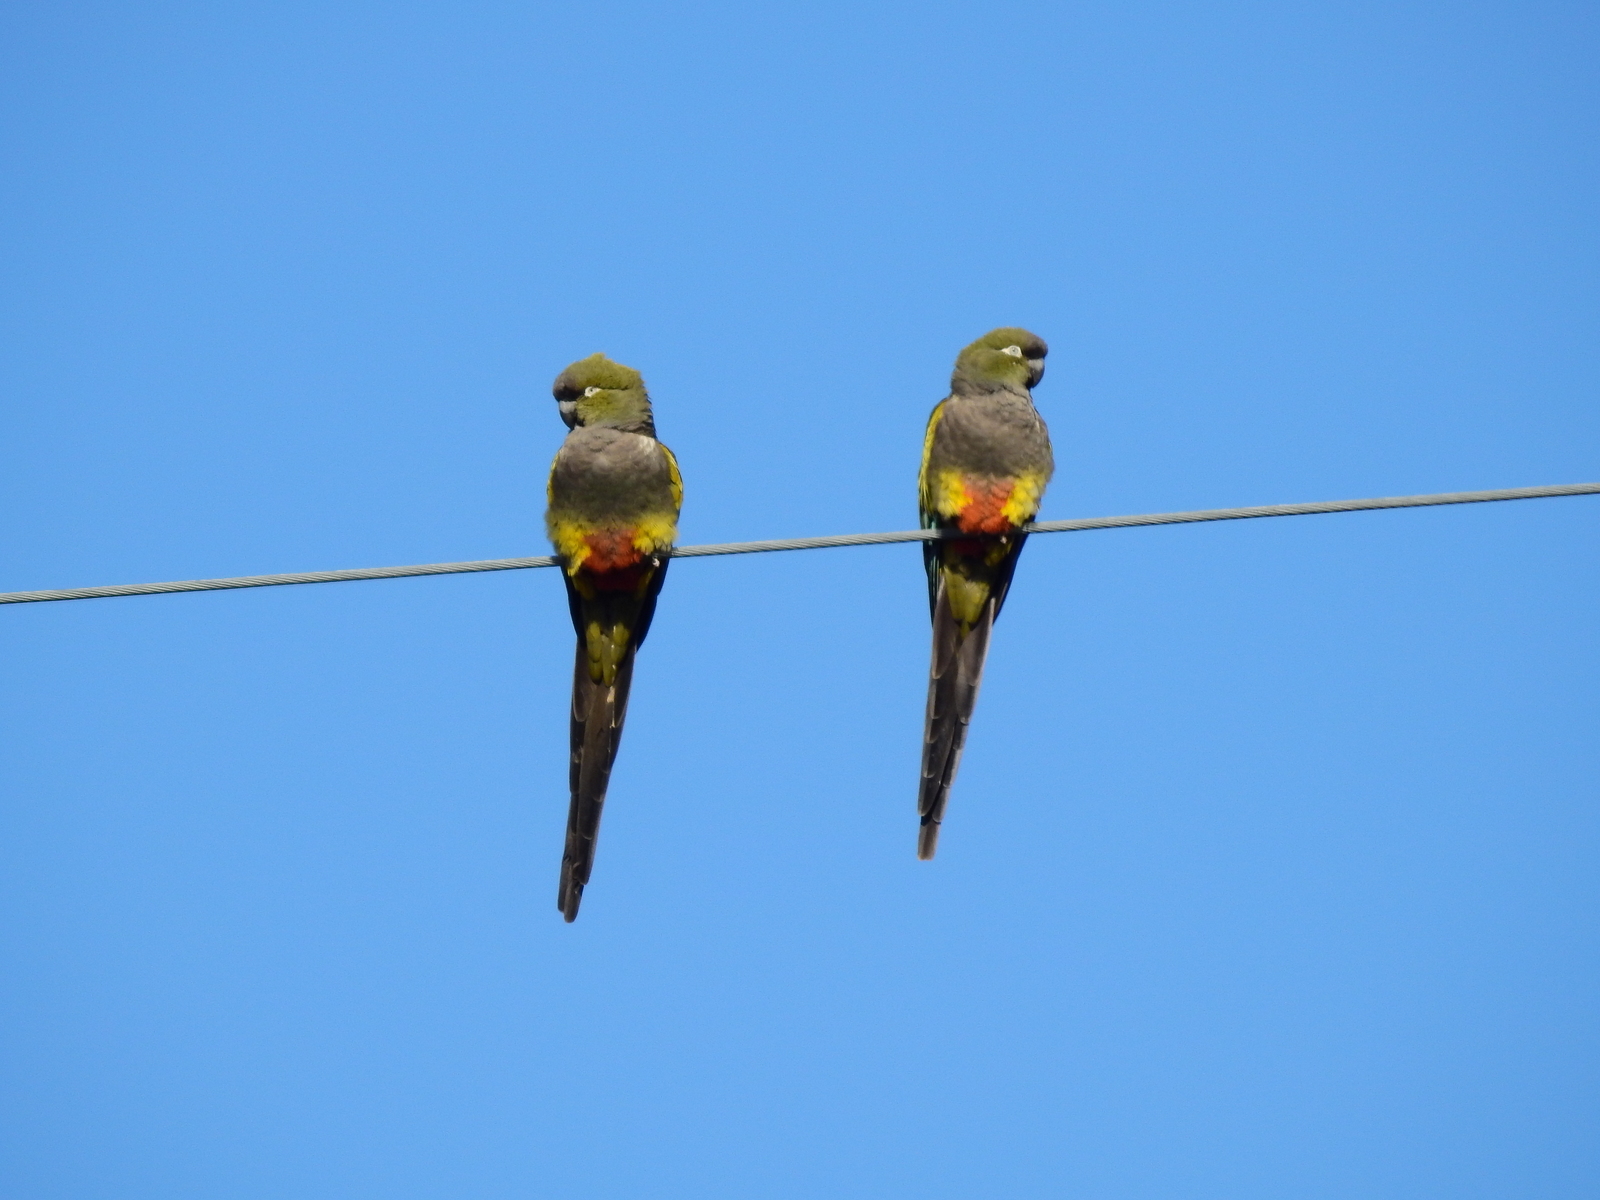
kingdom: Animalia
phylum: Chordata
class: Aves
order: Psittaciformes
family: Psittacidae
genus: Cyanoliseus
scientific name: Cyanoliseus patagonus
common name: Burrowing parrot
